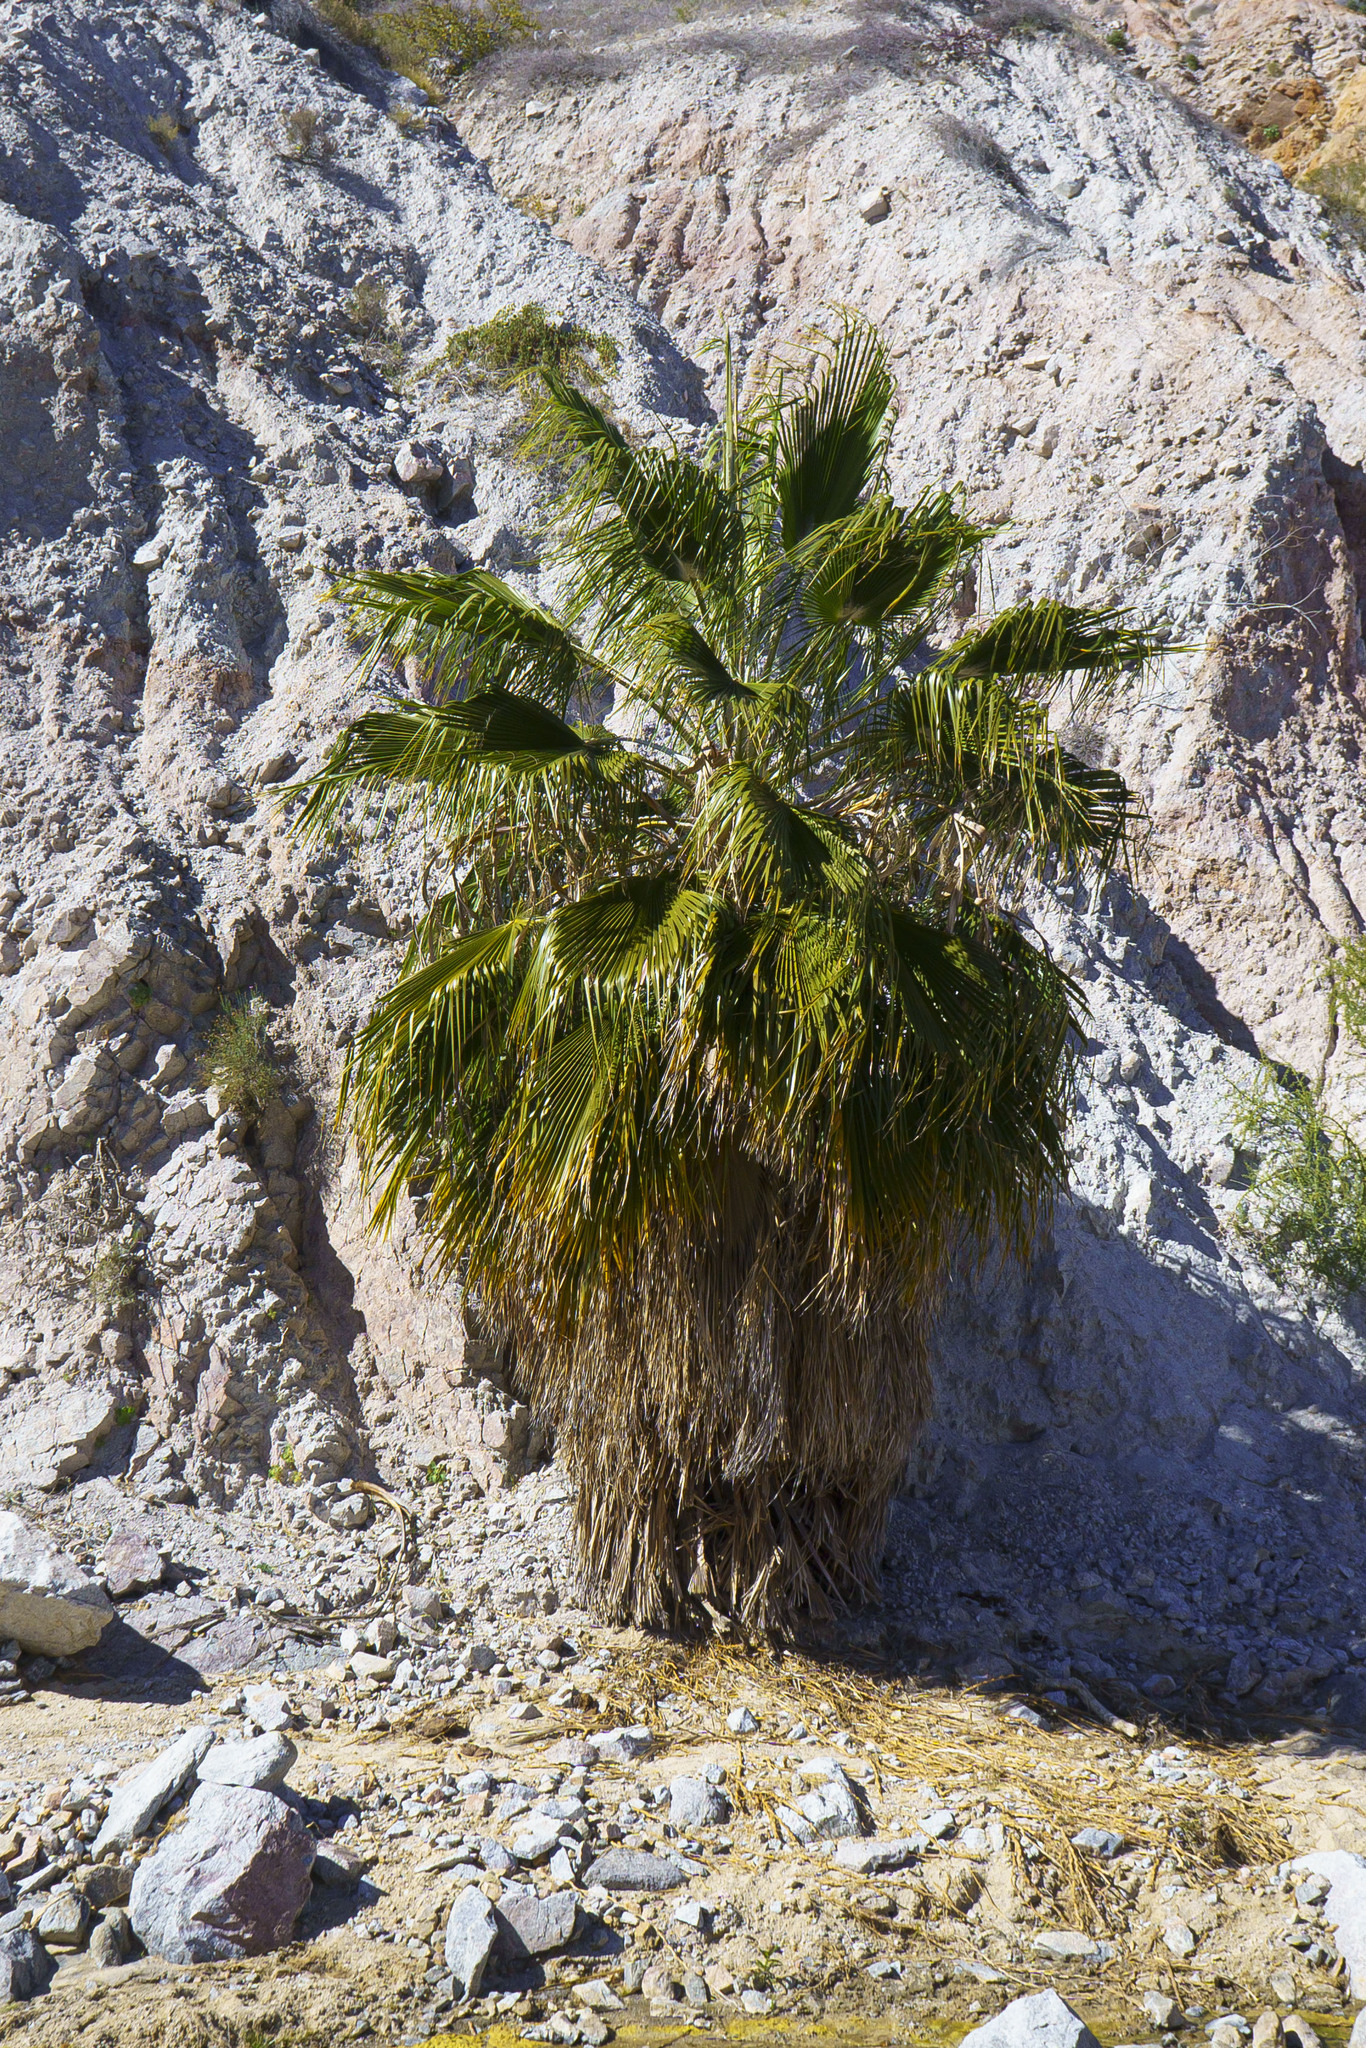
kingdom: Plantae
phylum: Tracheophyta
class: Liliopsida
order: Arecales
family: Arecaceae
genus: Washingtonia
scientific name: Washingtonia robusta
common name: Mexican fan palm
